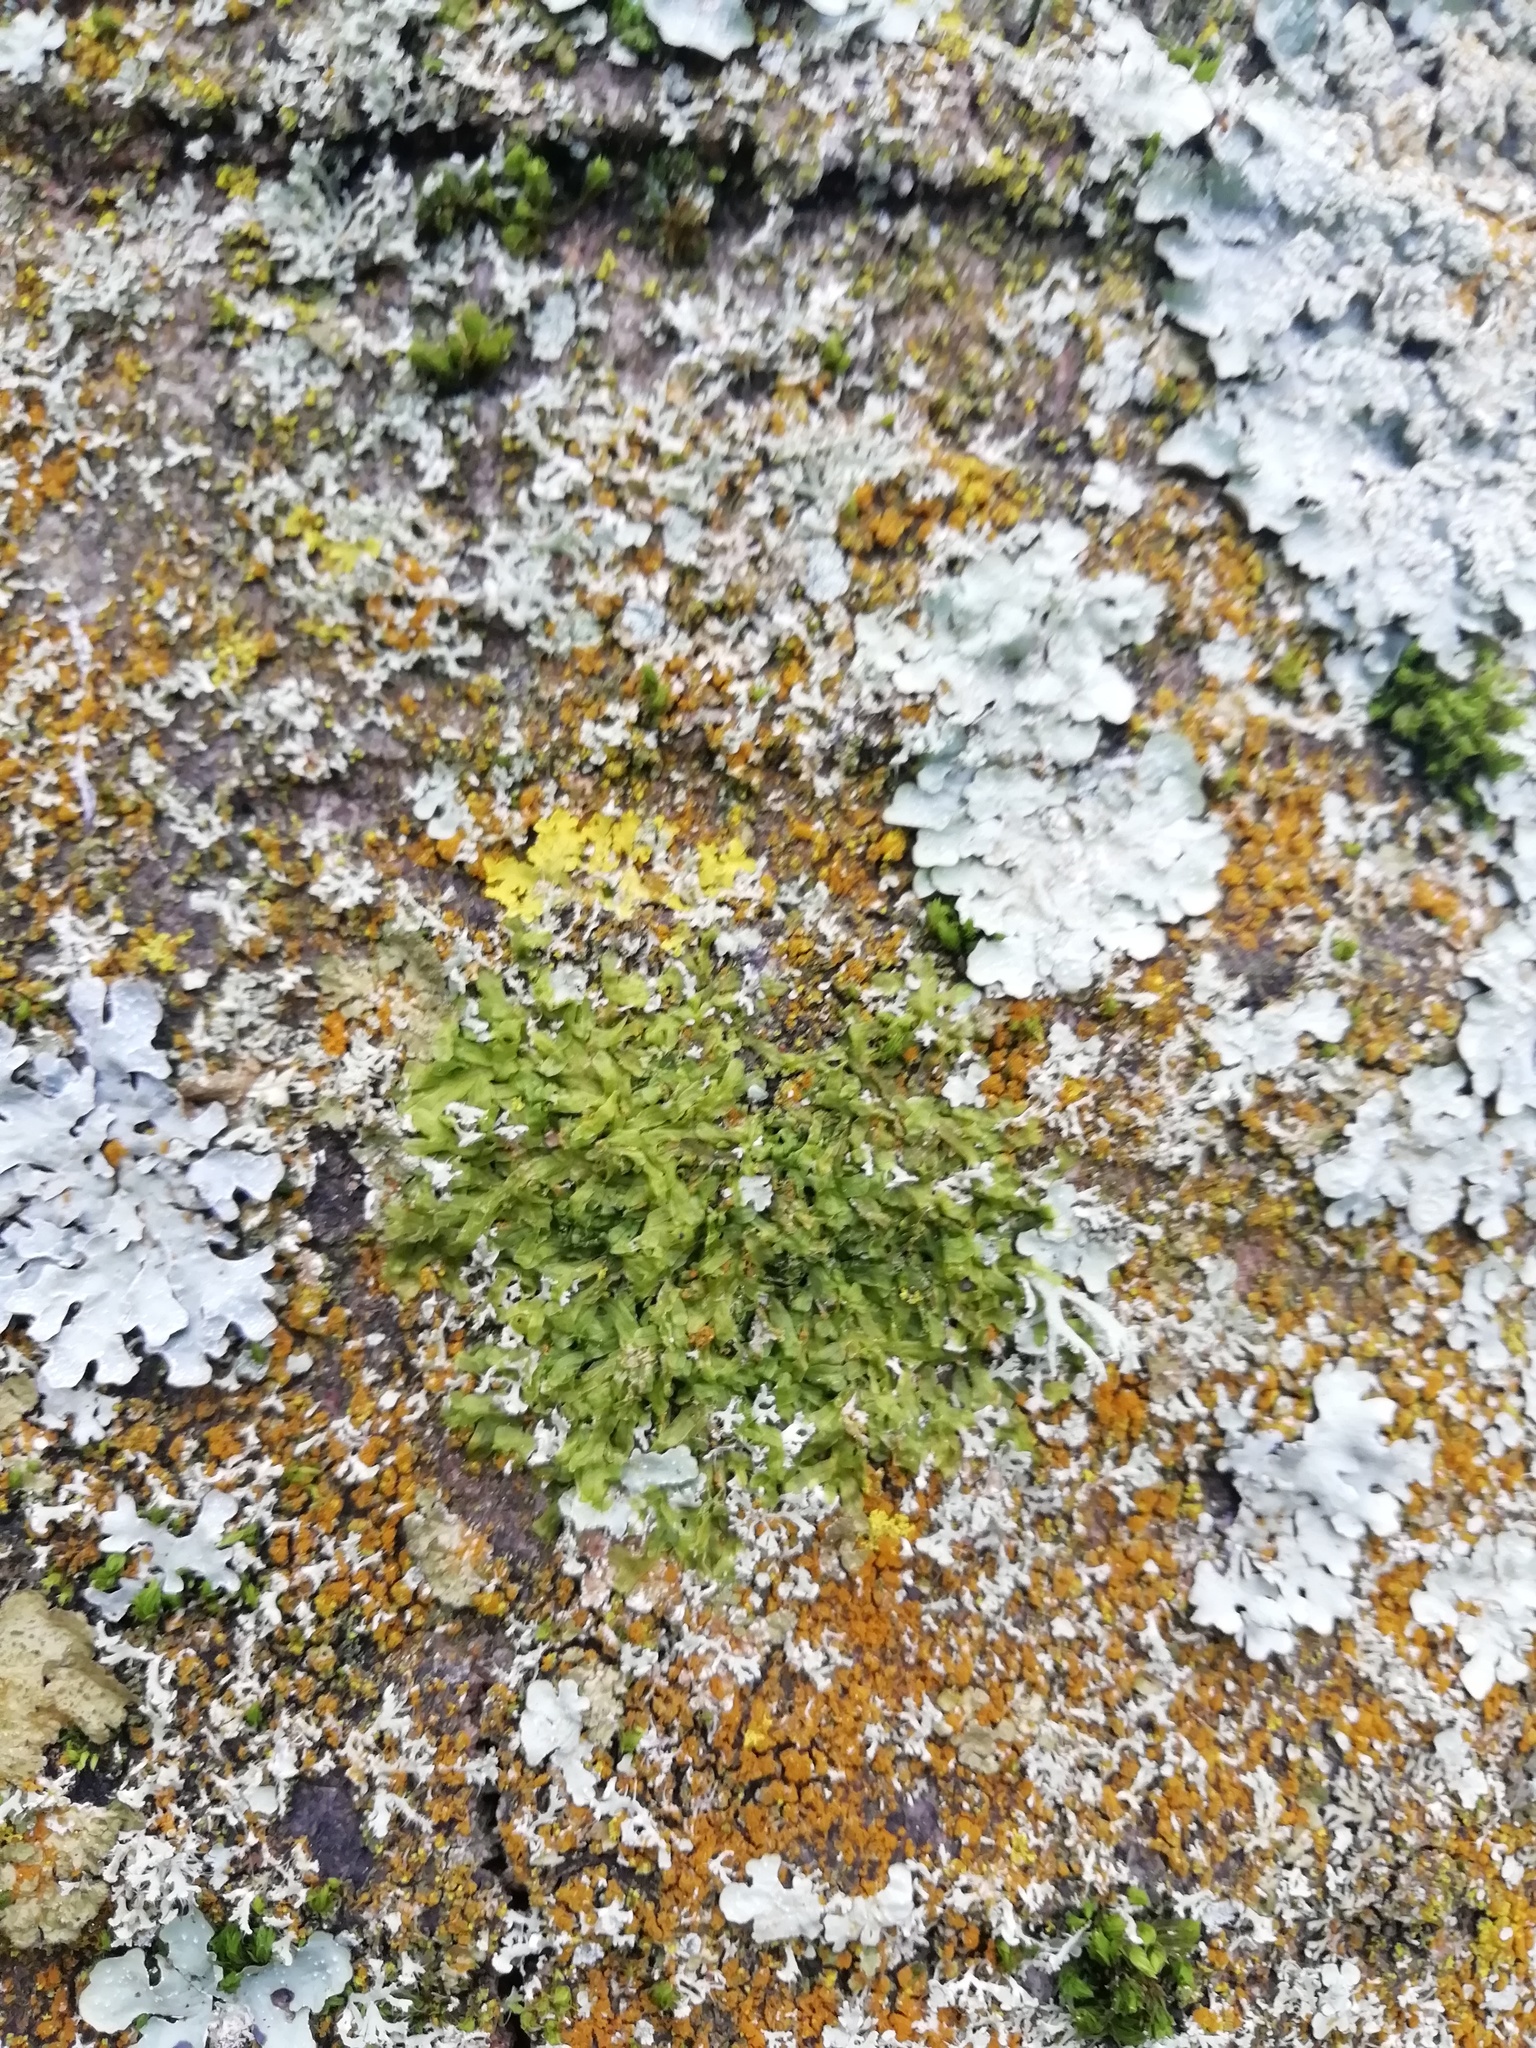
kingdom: Plantae
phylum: Marchantiophyta
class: Jungermanniopsida
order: Metzgeriales
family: Metzgeriaceae
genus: Metzgeria
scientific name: Metzgeria furcata
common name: Forked veilwort
